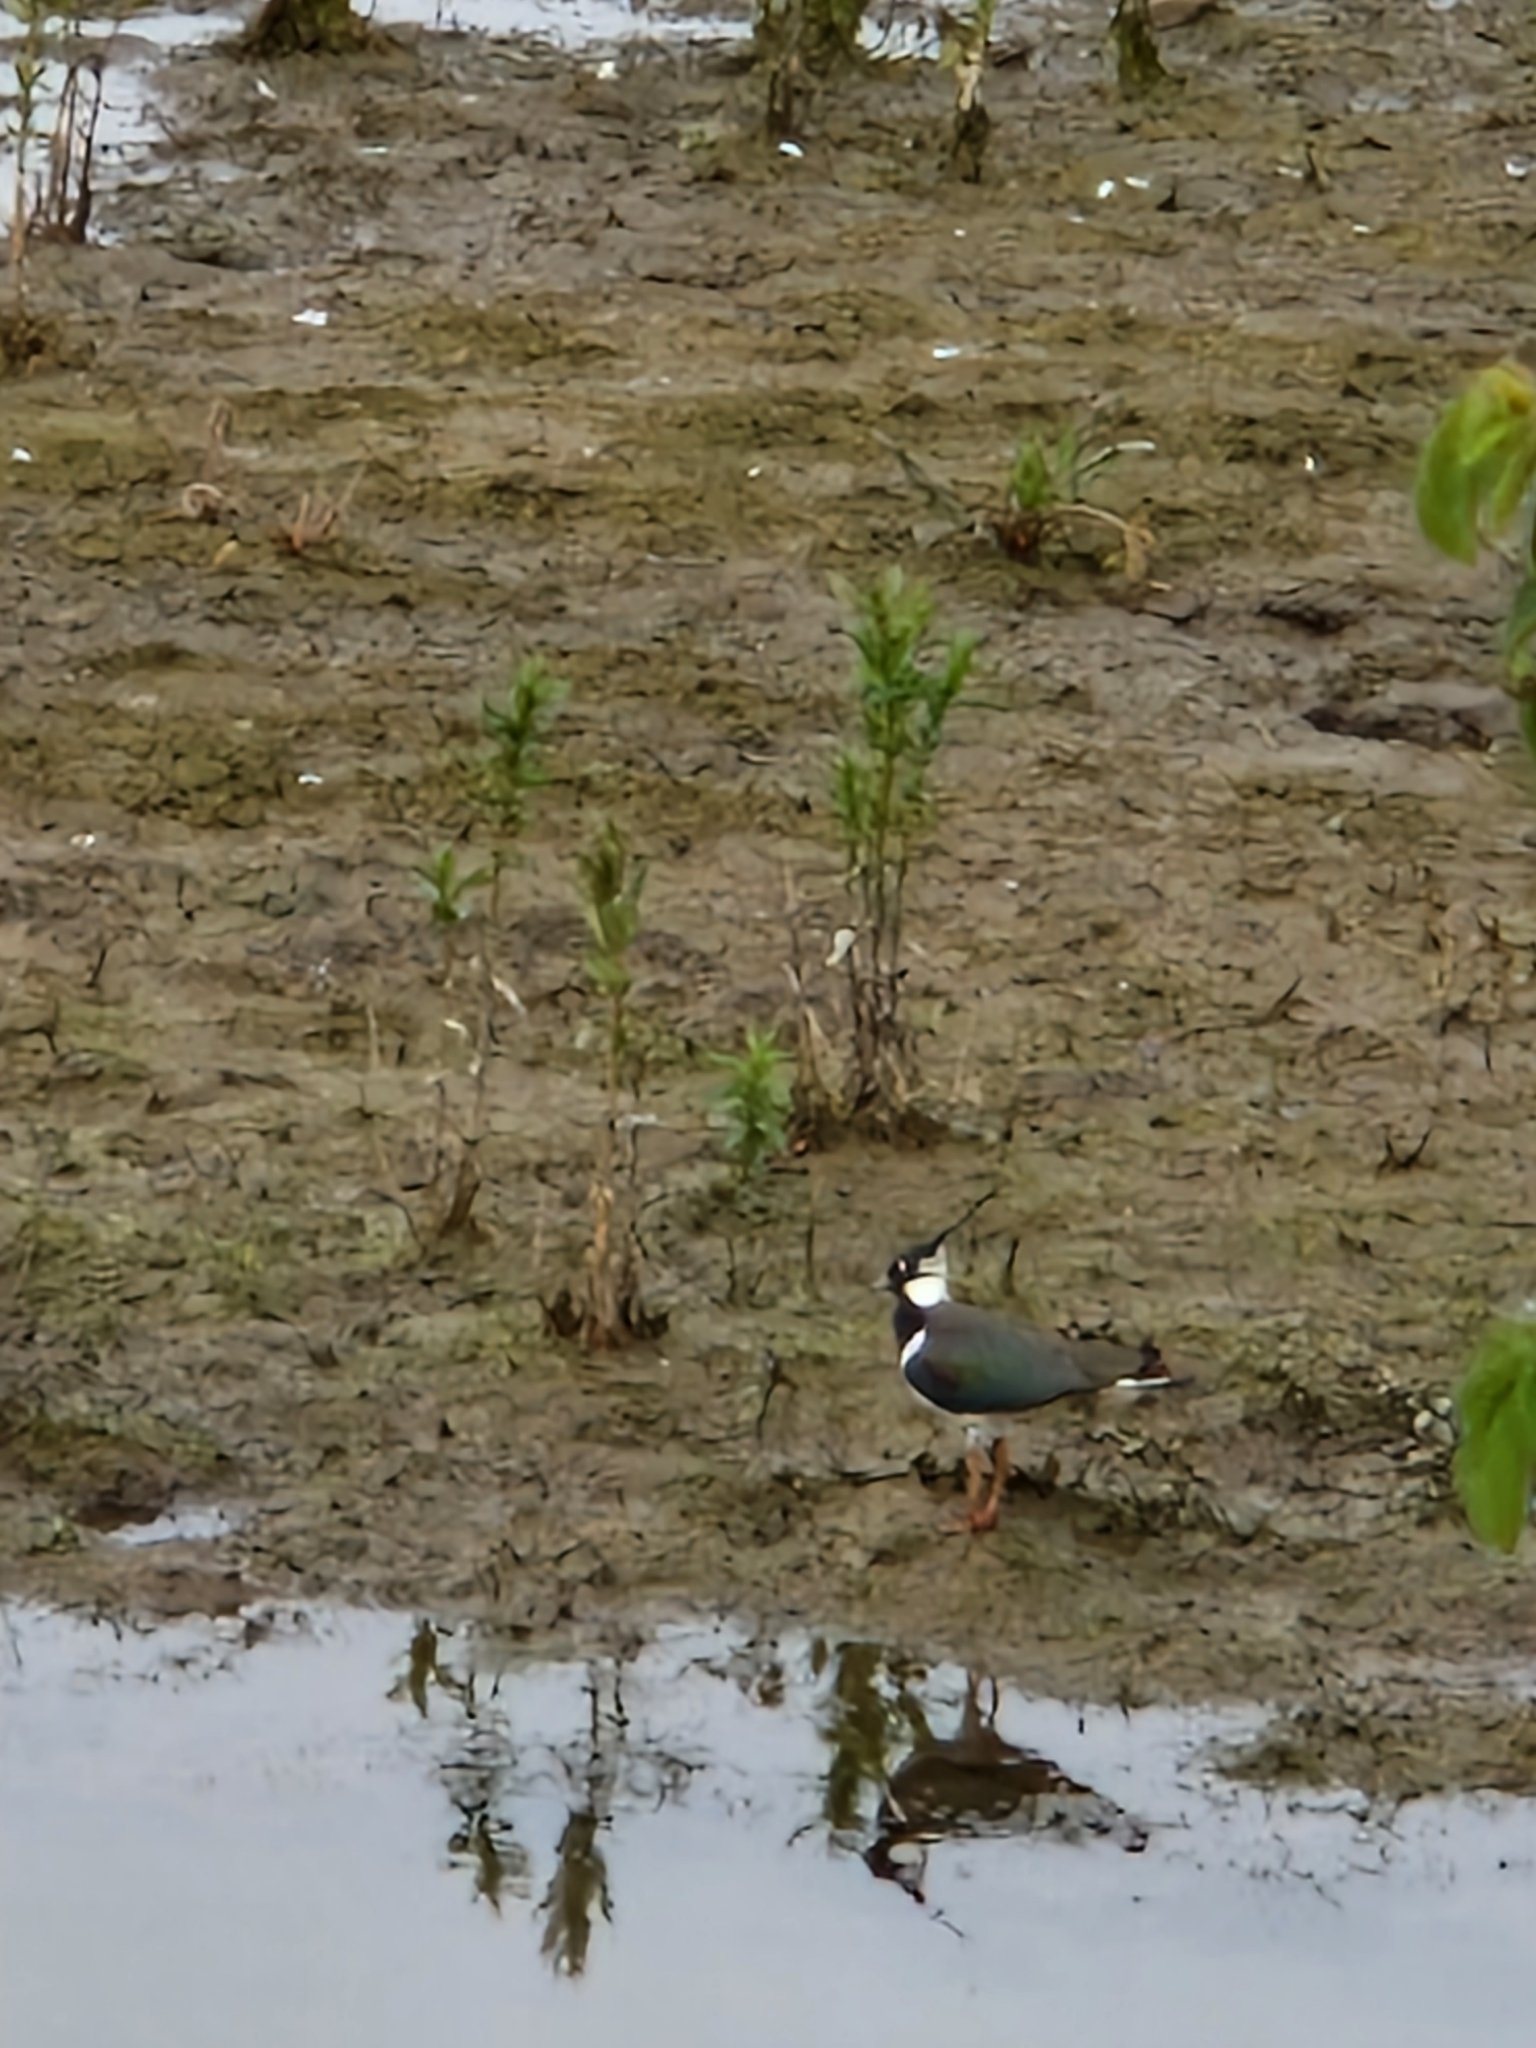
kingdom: Animalia
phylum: Chordata
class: Aves
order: Charadriiformes
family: Charadriidae
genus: Vanellus
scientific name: Vanellus vanellus
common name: Northern lapwing
